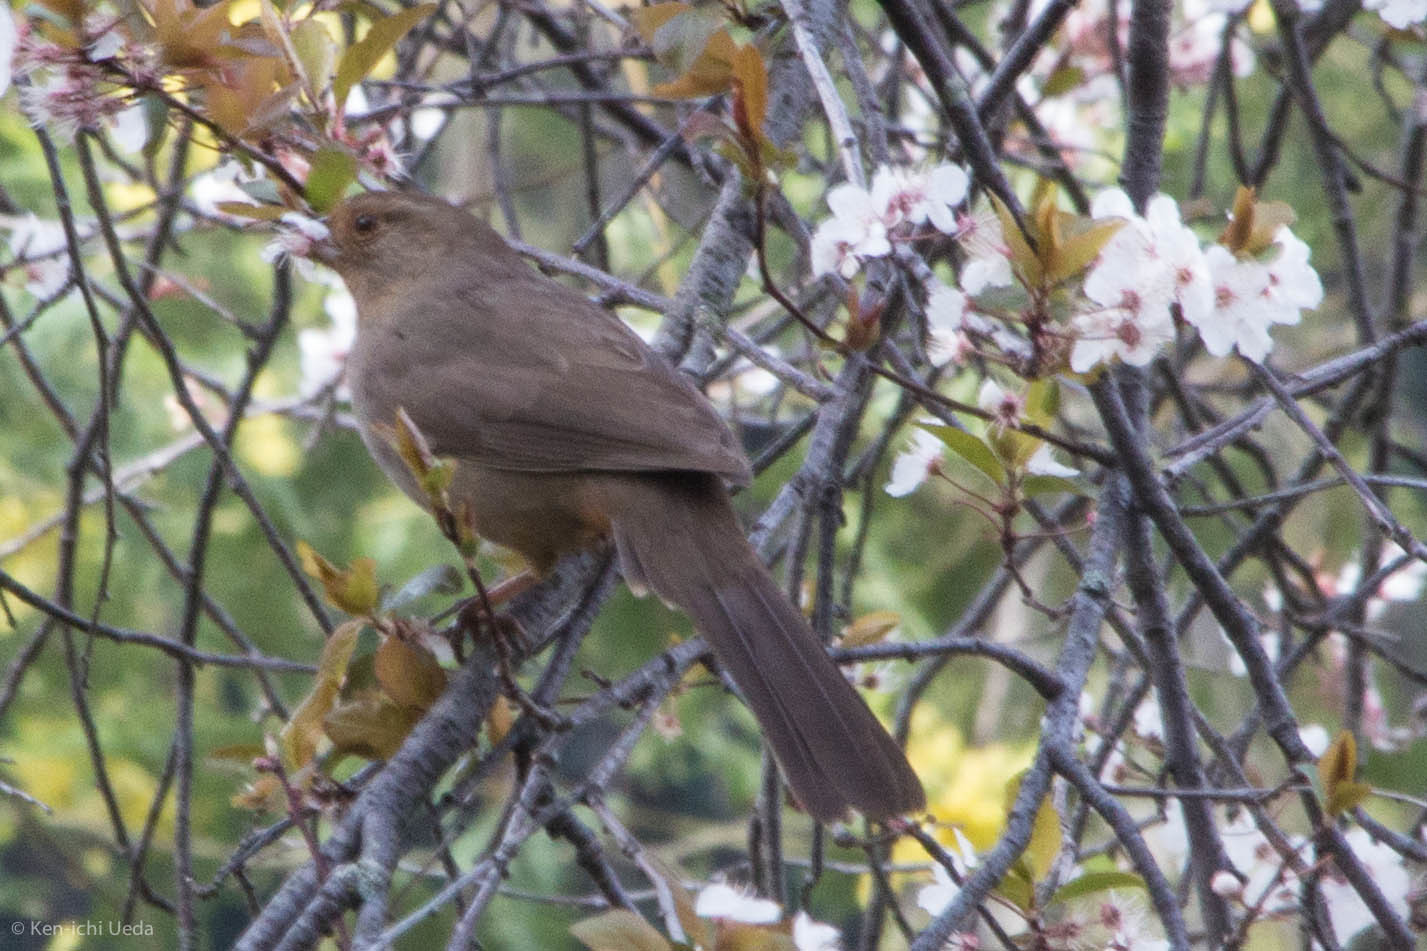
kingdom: Animalia
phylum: Chordata
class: Aves
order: Passeriformes
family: Passerellidae
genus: Melozone
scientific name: Melozone crissalis
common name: California towhee
